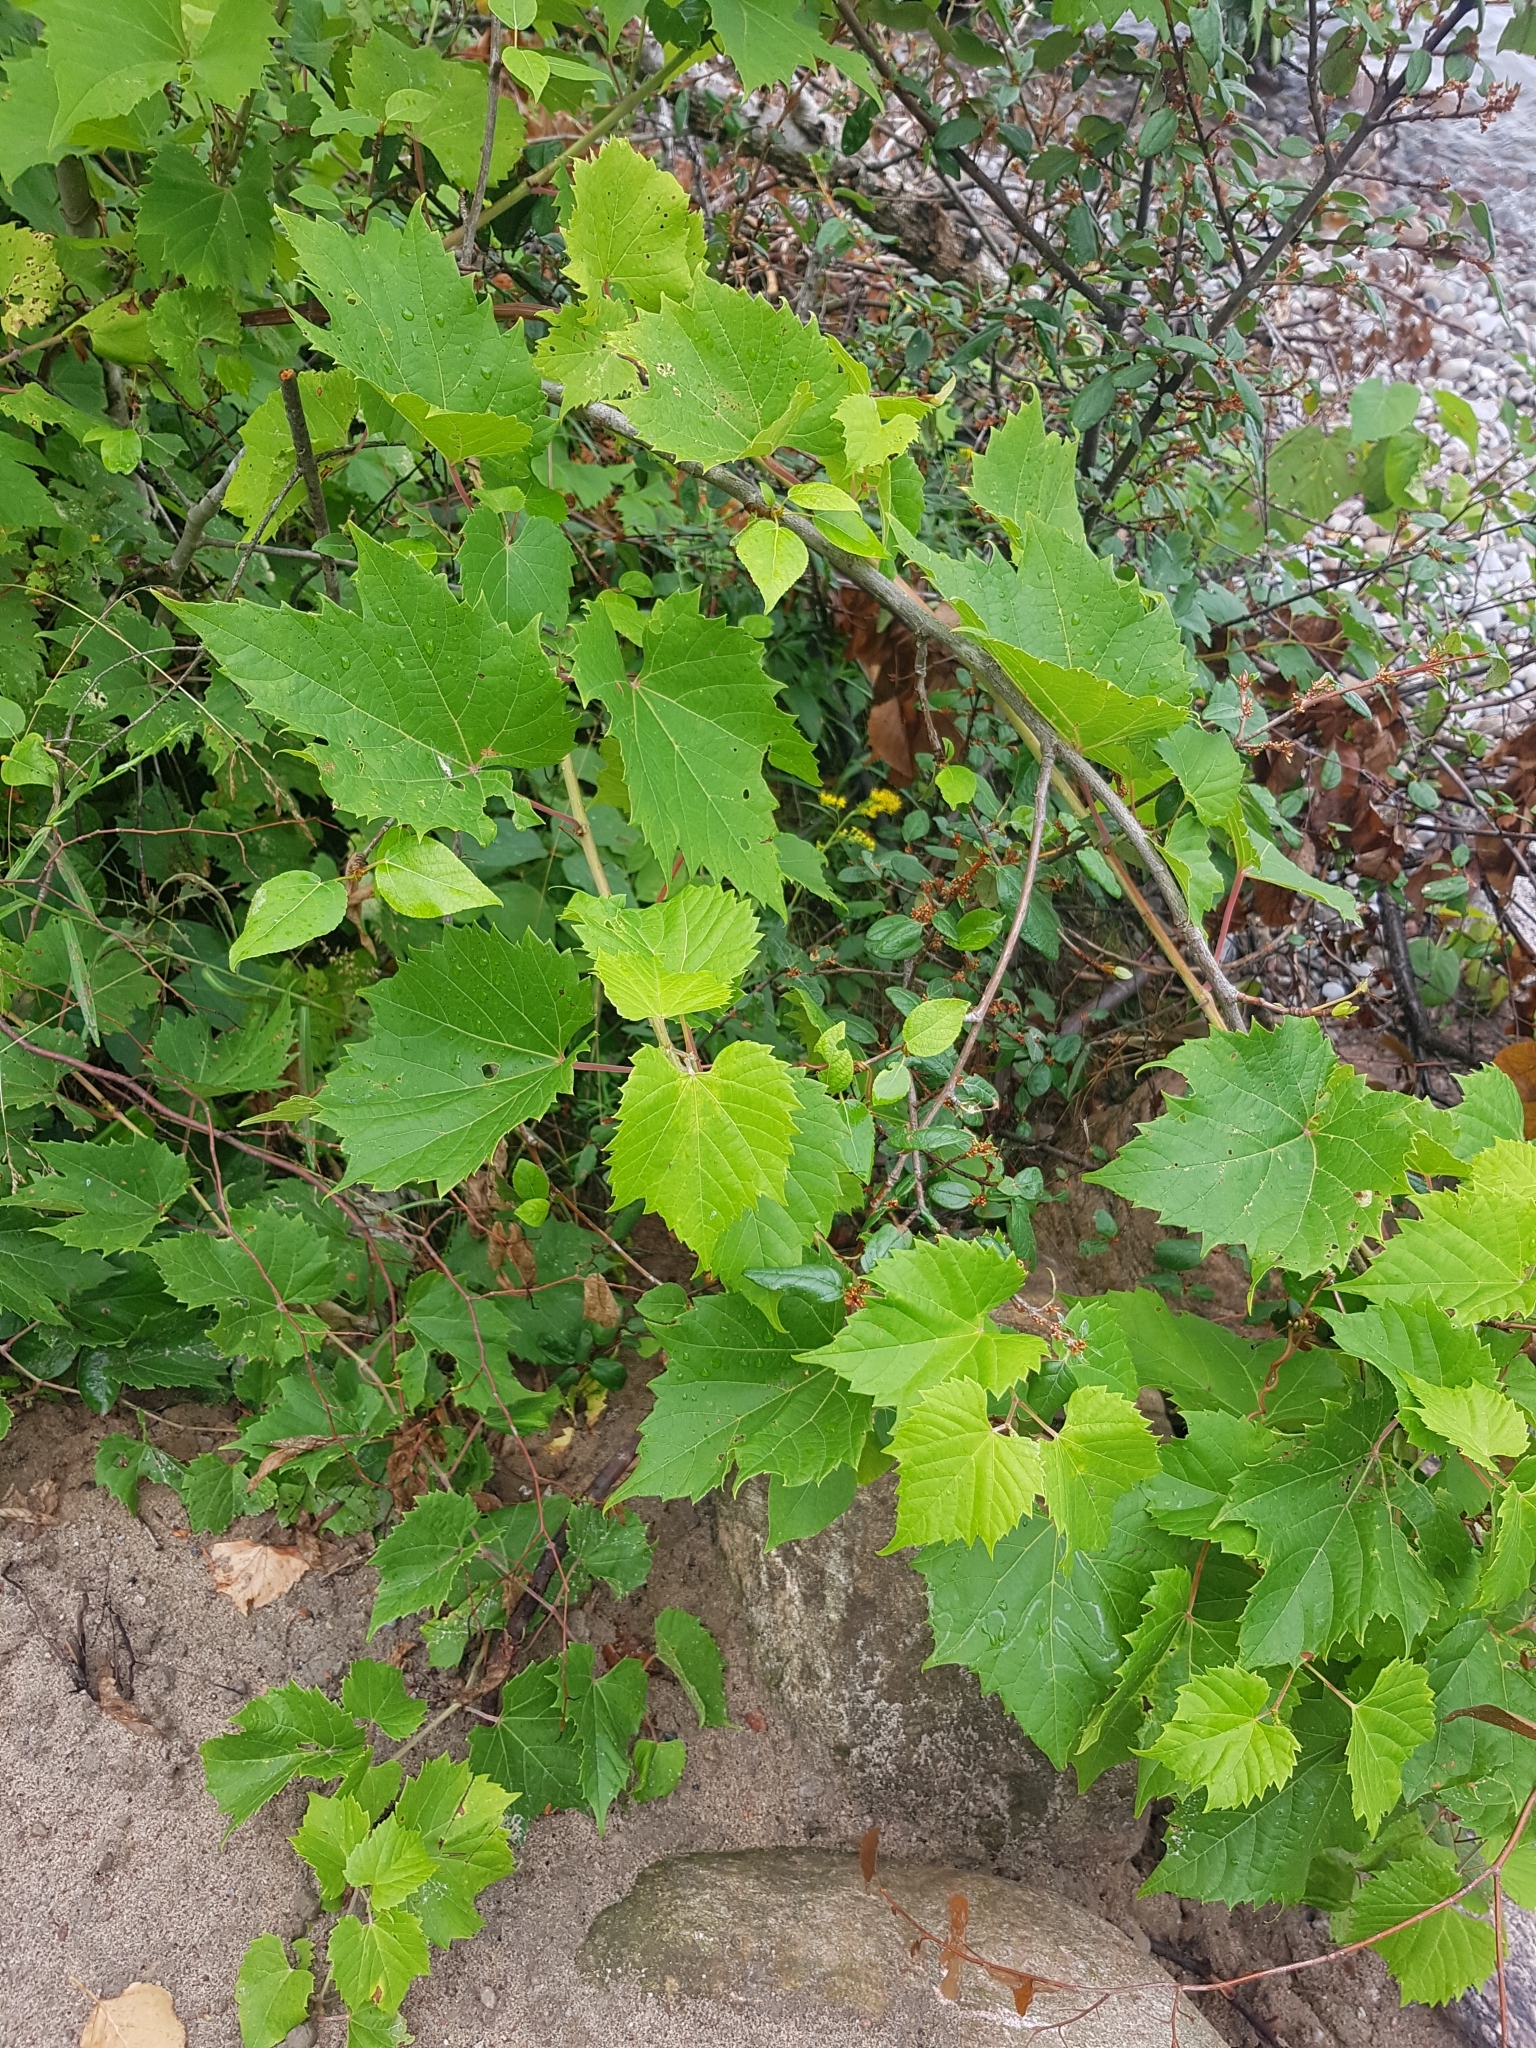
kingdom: Plantae
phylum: Tracheophyta
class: Magnoliopsida
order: Vitales
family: Vitaceae
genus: Vitis
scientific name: Vitis riparia
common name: Frost grape
